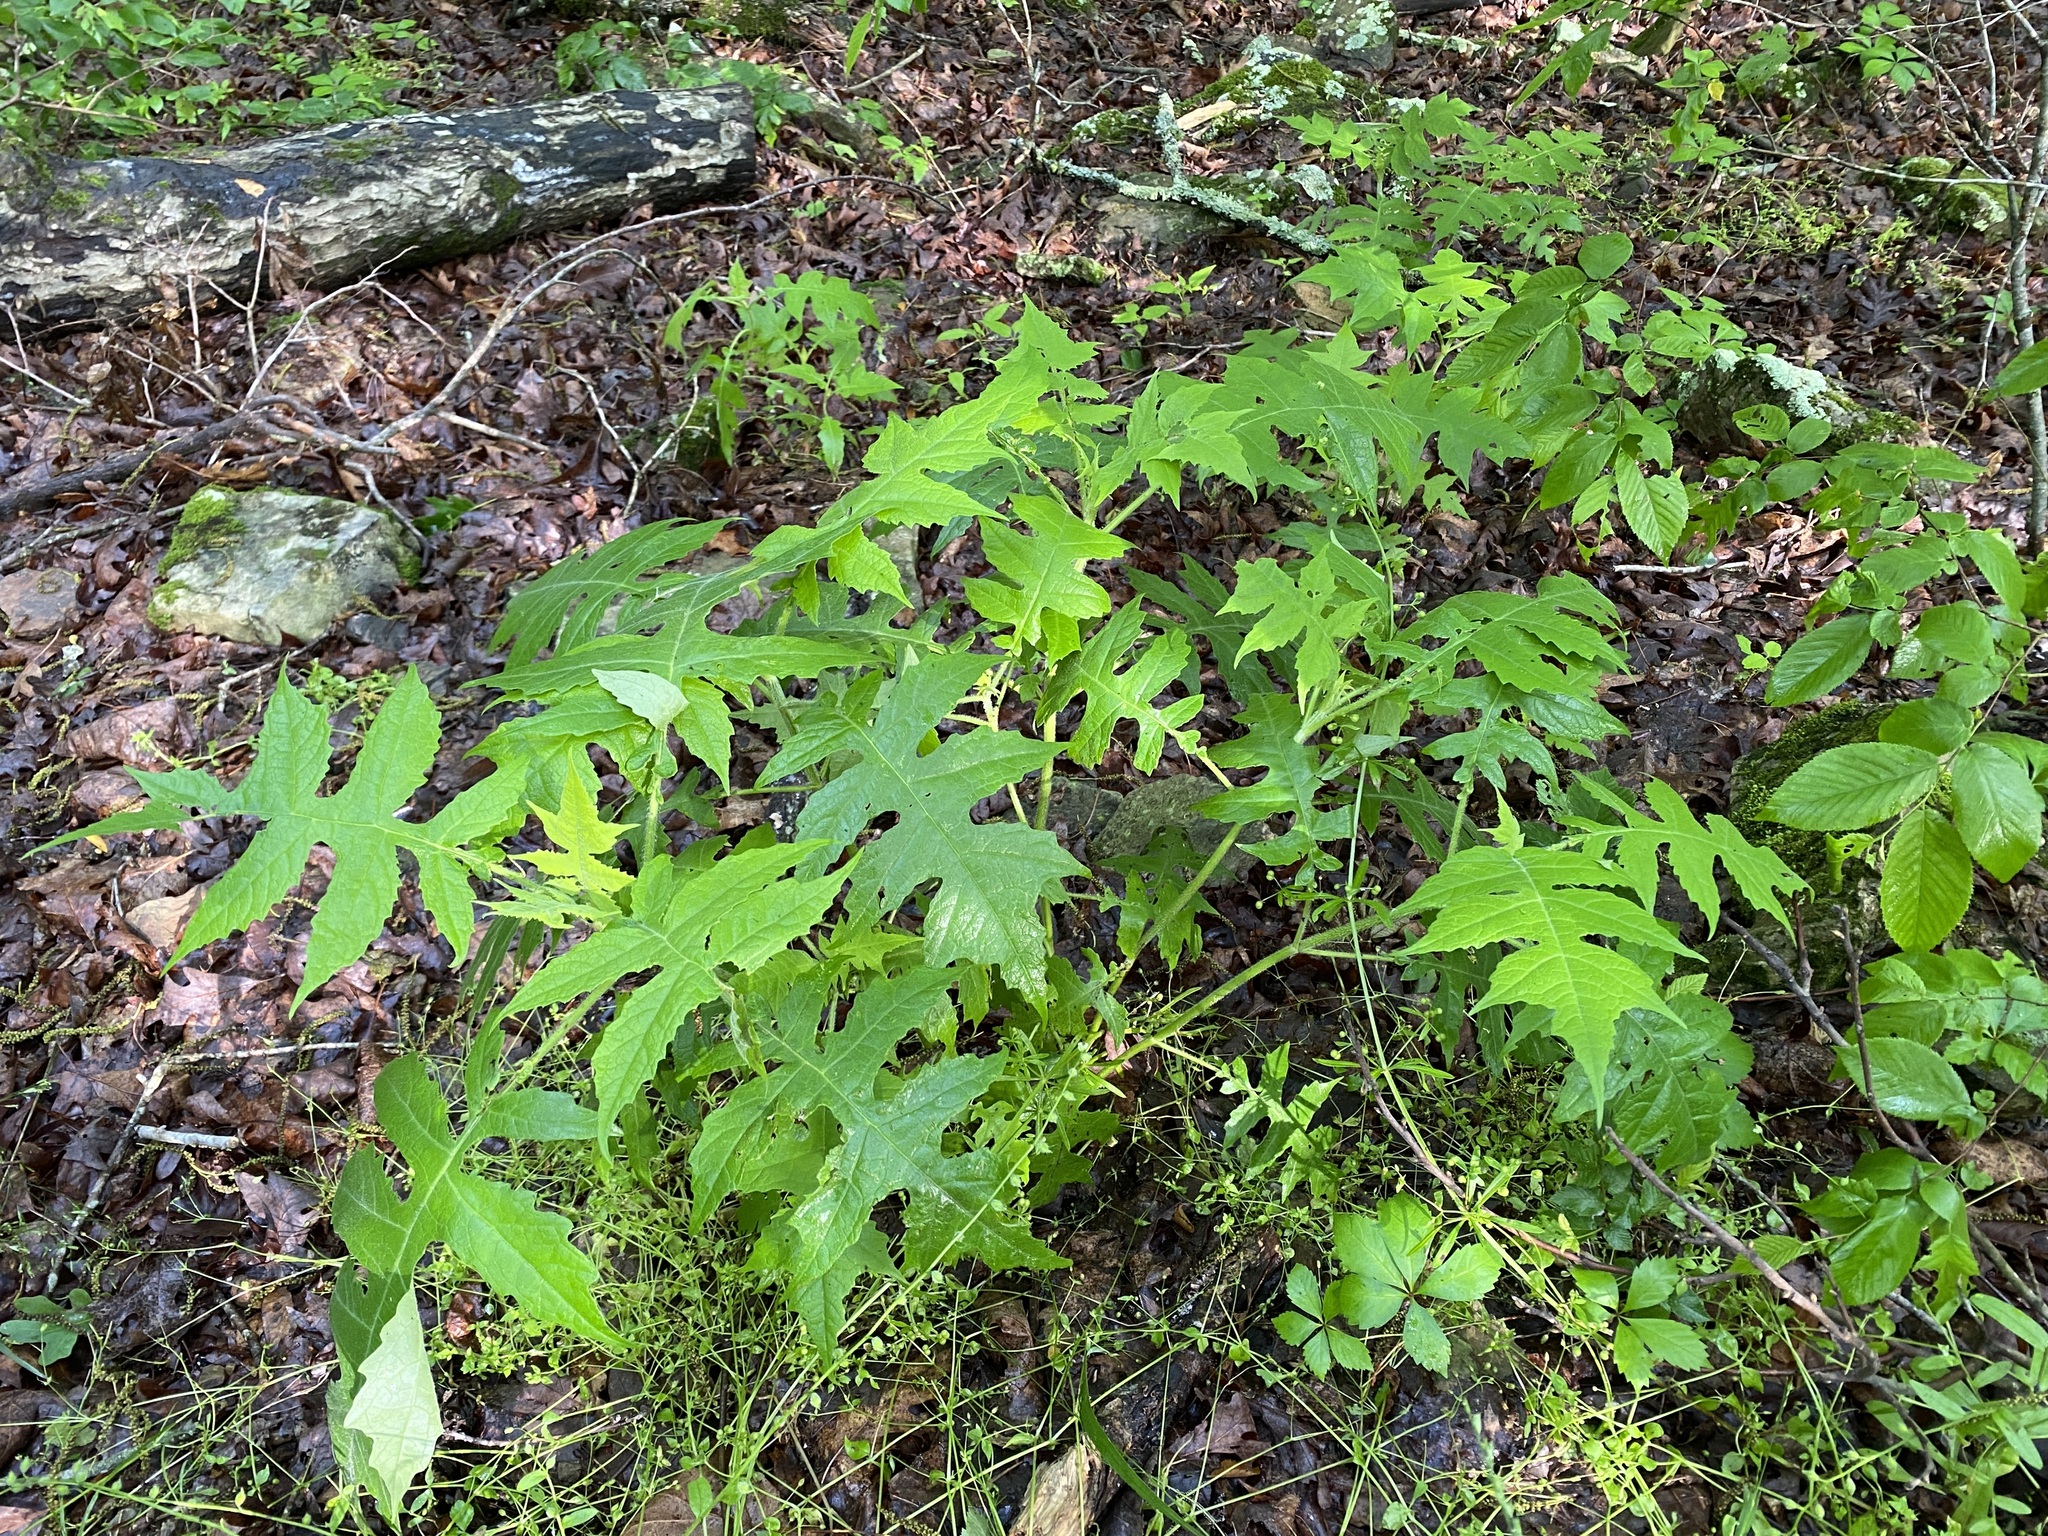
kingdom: Plantae
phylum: Tracheophyta
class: Magnoliopsida
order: Asterales
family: Asteraceae
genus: Polymnia
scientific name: Polymnia canadensis
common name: Pale-flowered leafcup
